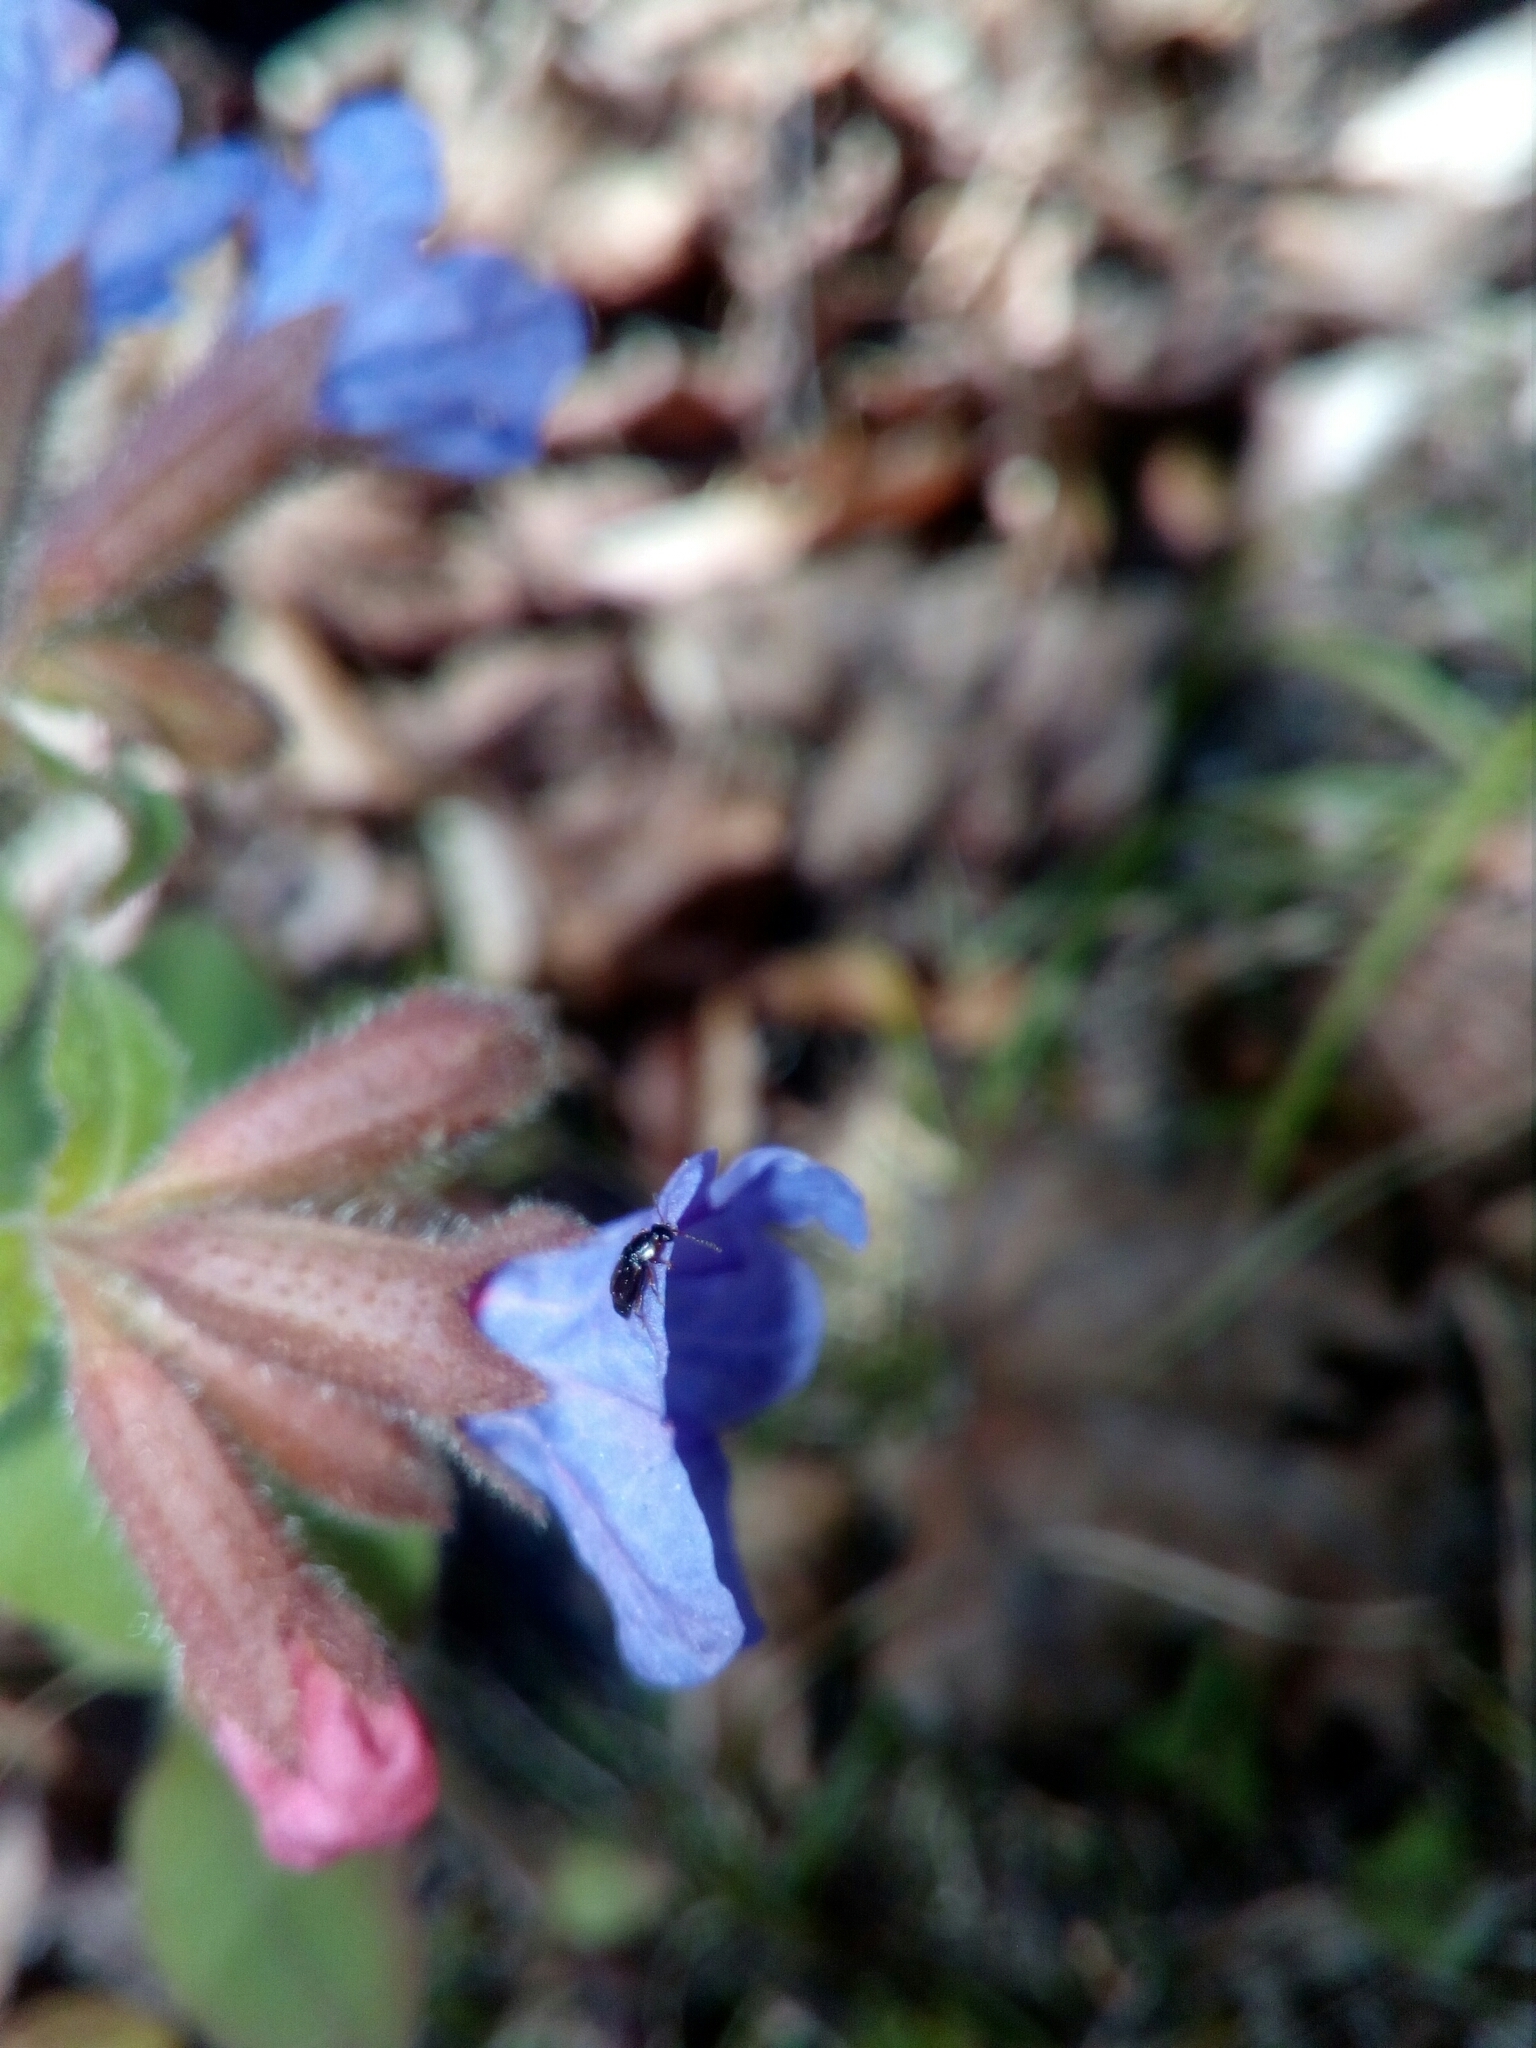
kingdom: Animalia
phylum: Arthropoda
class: Insecta
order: Coleoptera
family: Staphylinidae
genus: Eusphalerum
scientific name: Eusphalerum limbatum
